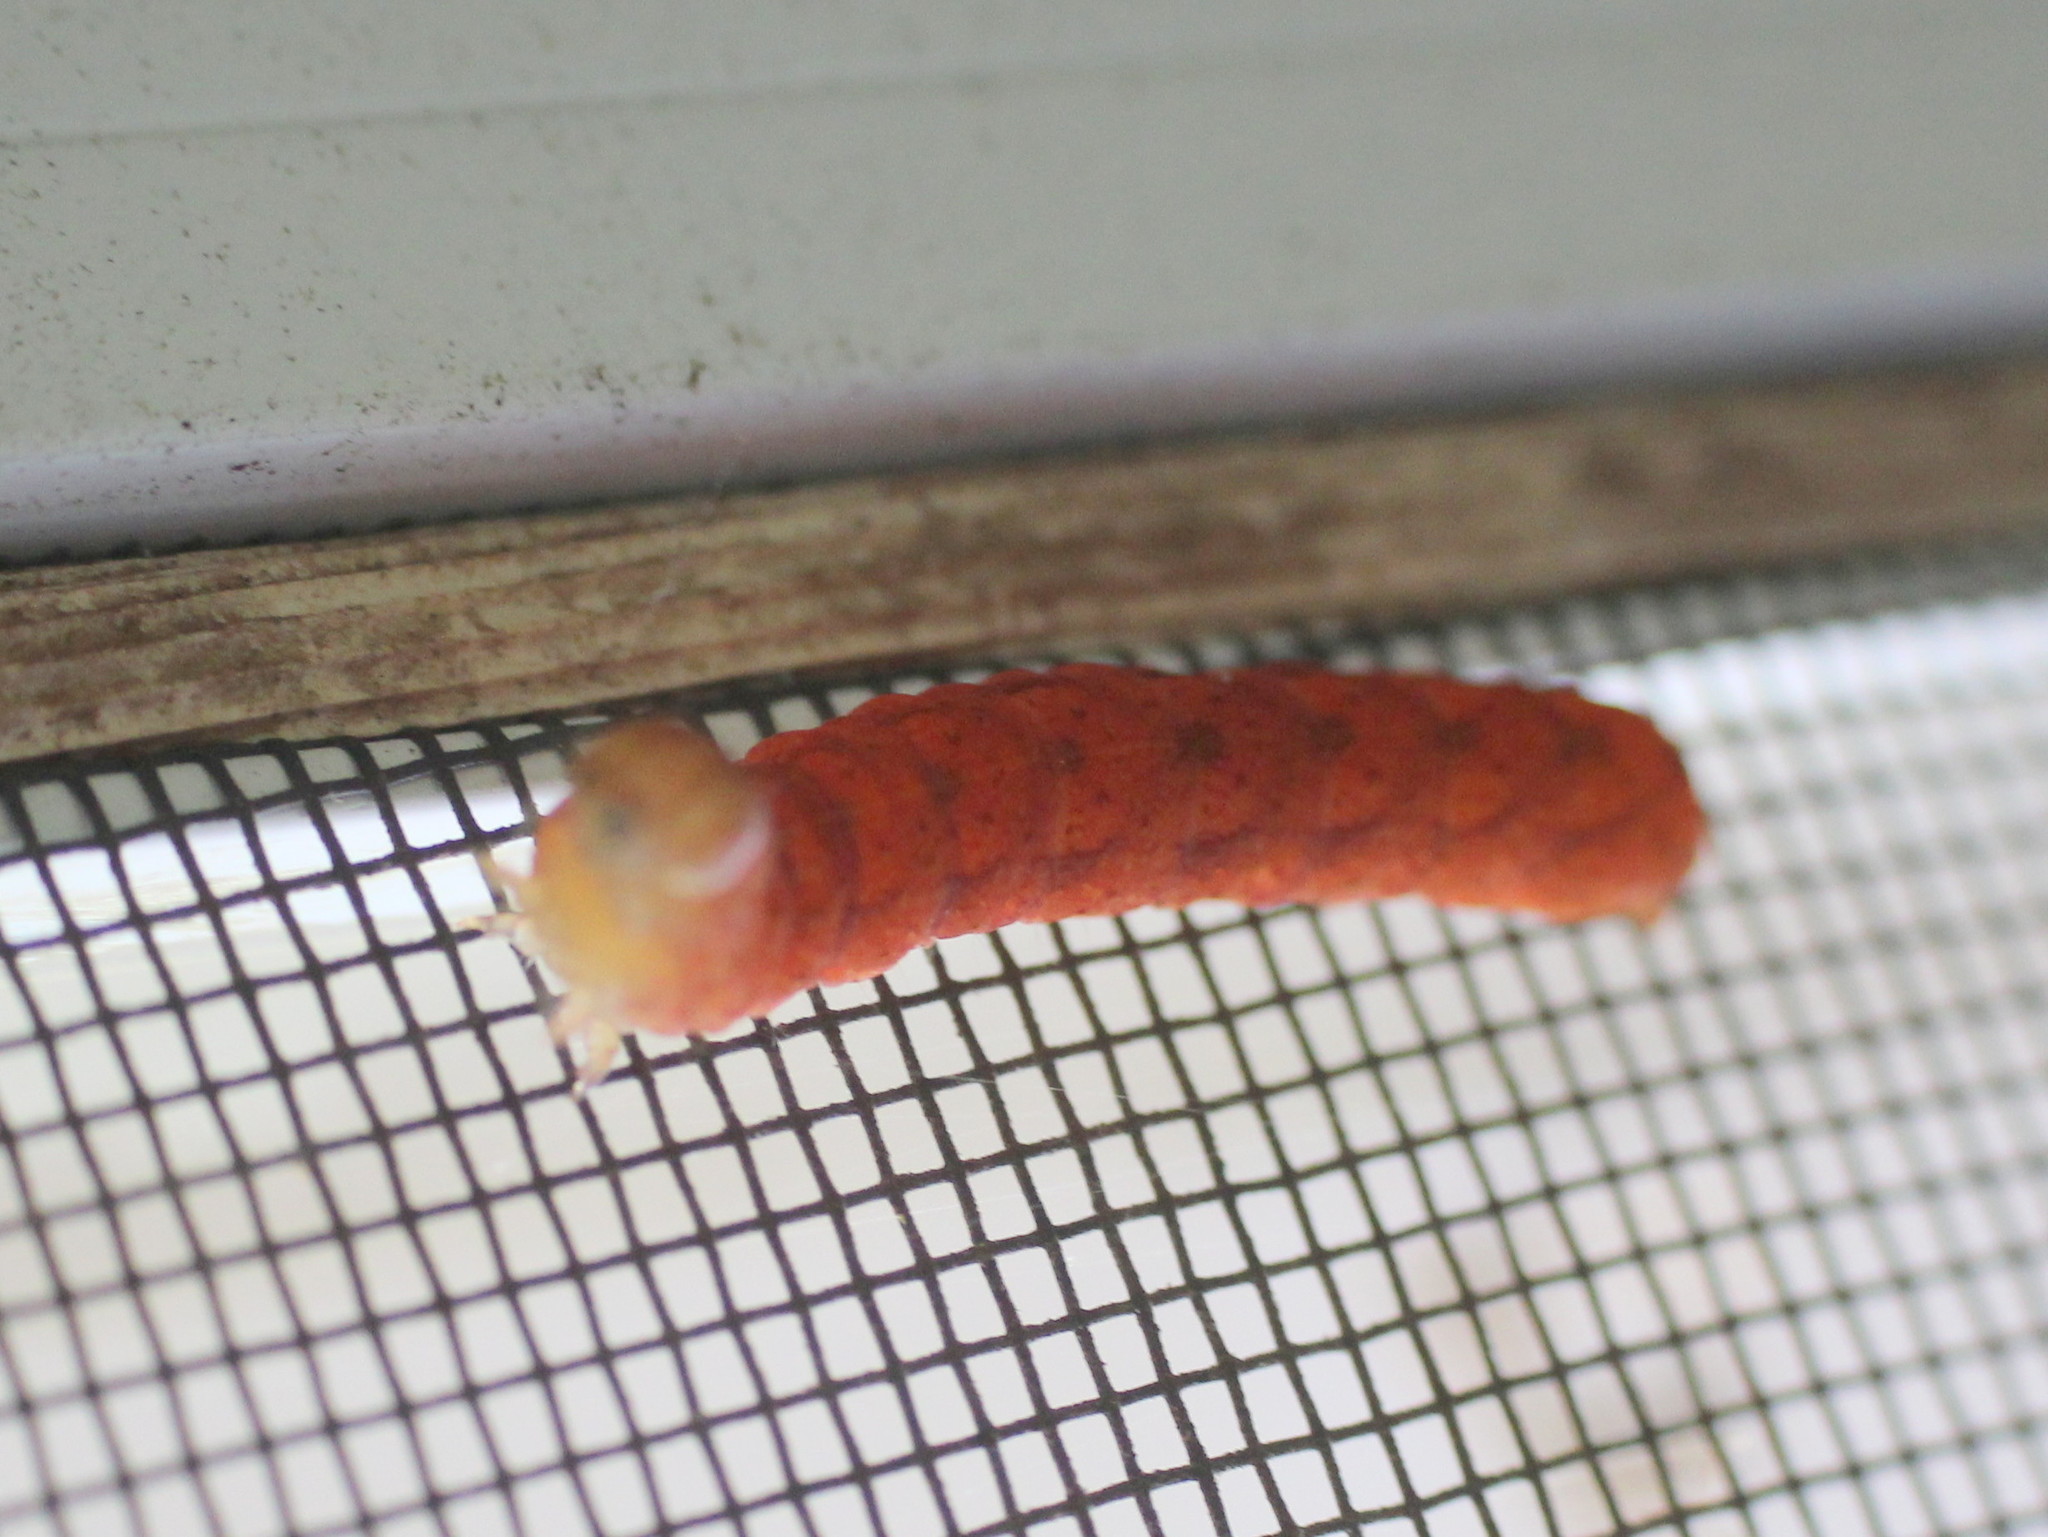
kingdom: Animalia
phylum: Arthropoda
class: Insecta
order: Lepidoptera
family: Noctuidae
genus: Spiramater
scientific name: Spiramater lutra
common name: Otter spiramater moth
